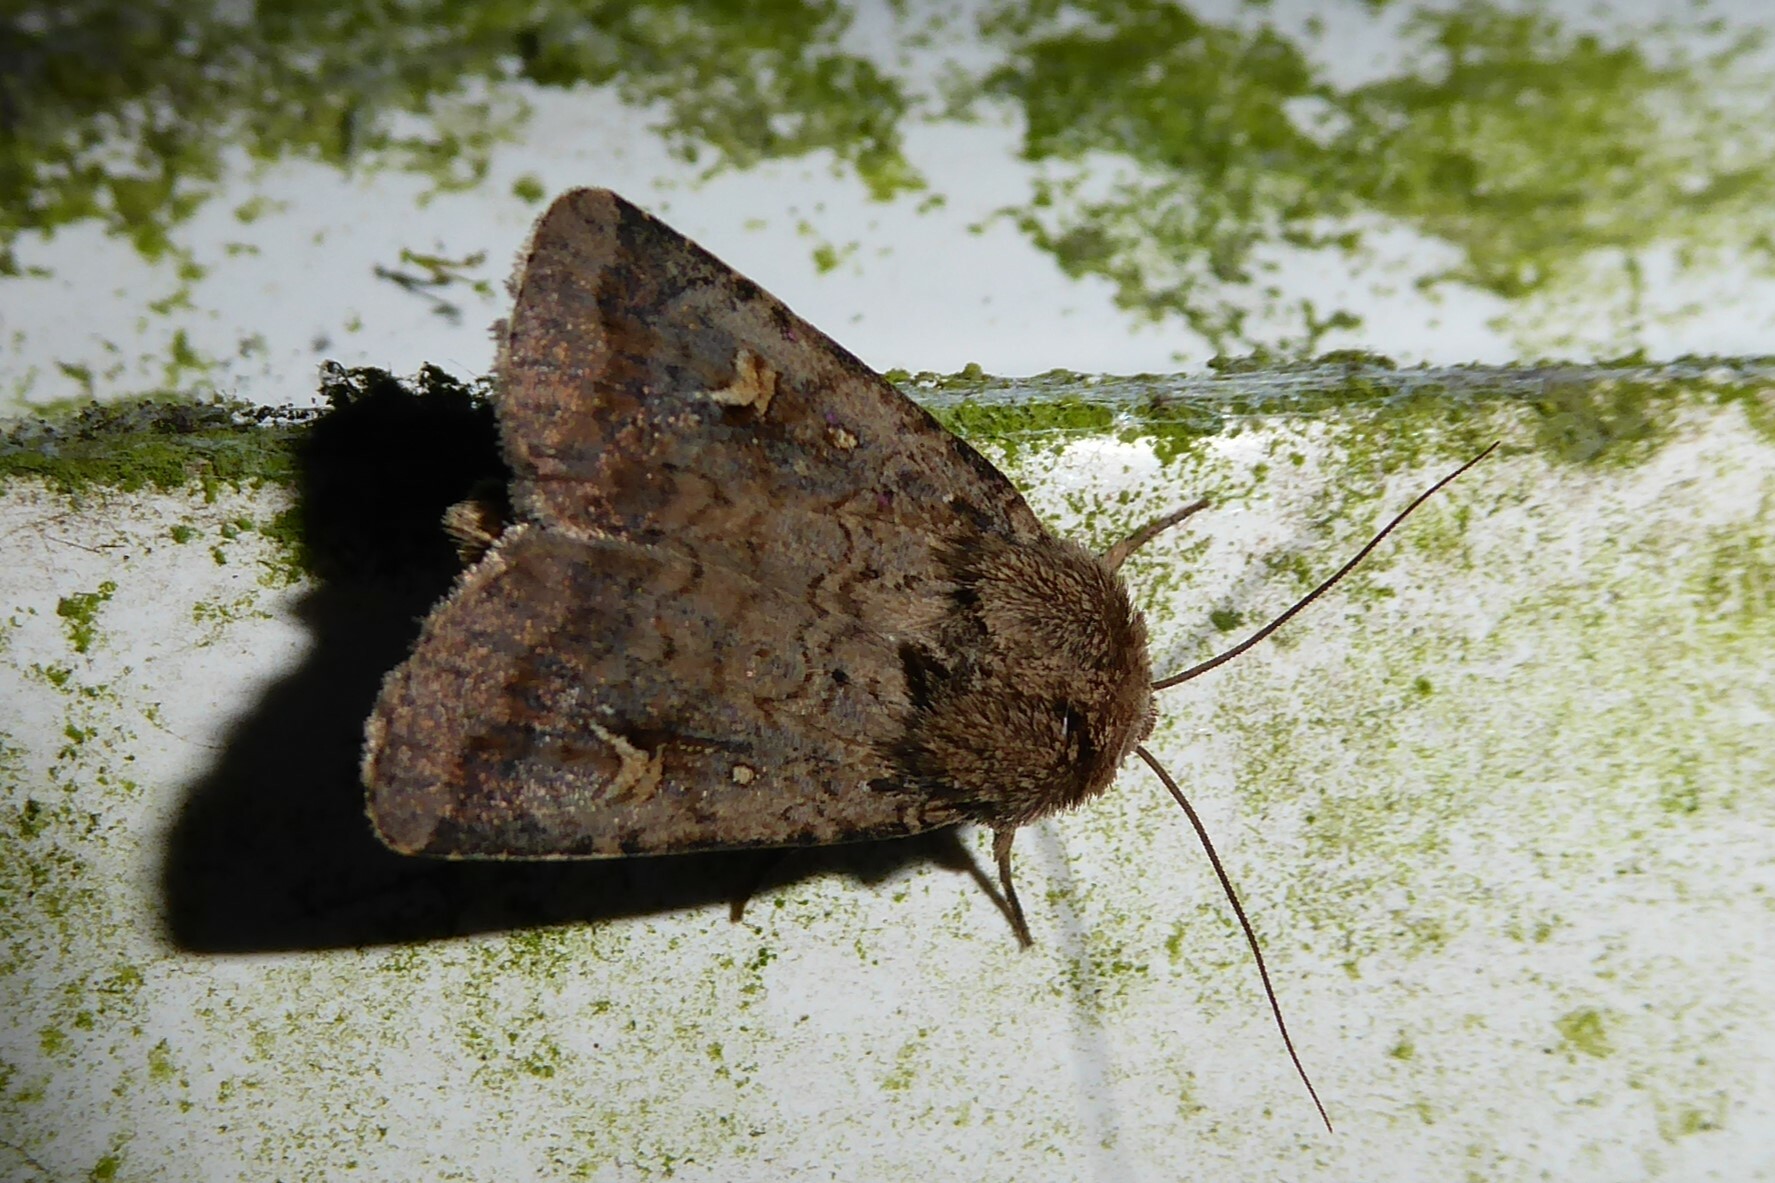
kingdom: Animalia
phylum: Arthropoda
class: Insecta
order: Lepidoptera
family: Noctuidae
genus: Proteuxoa
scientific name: Proteuxoa tetronycha
